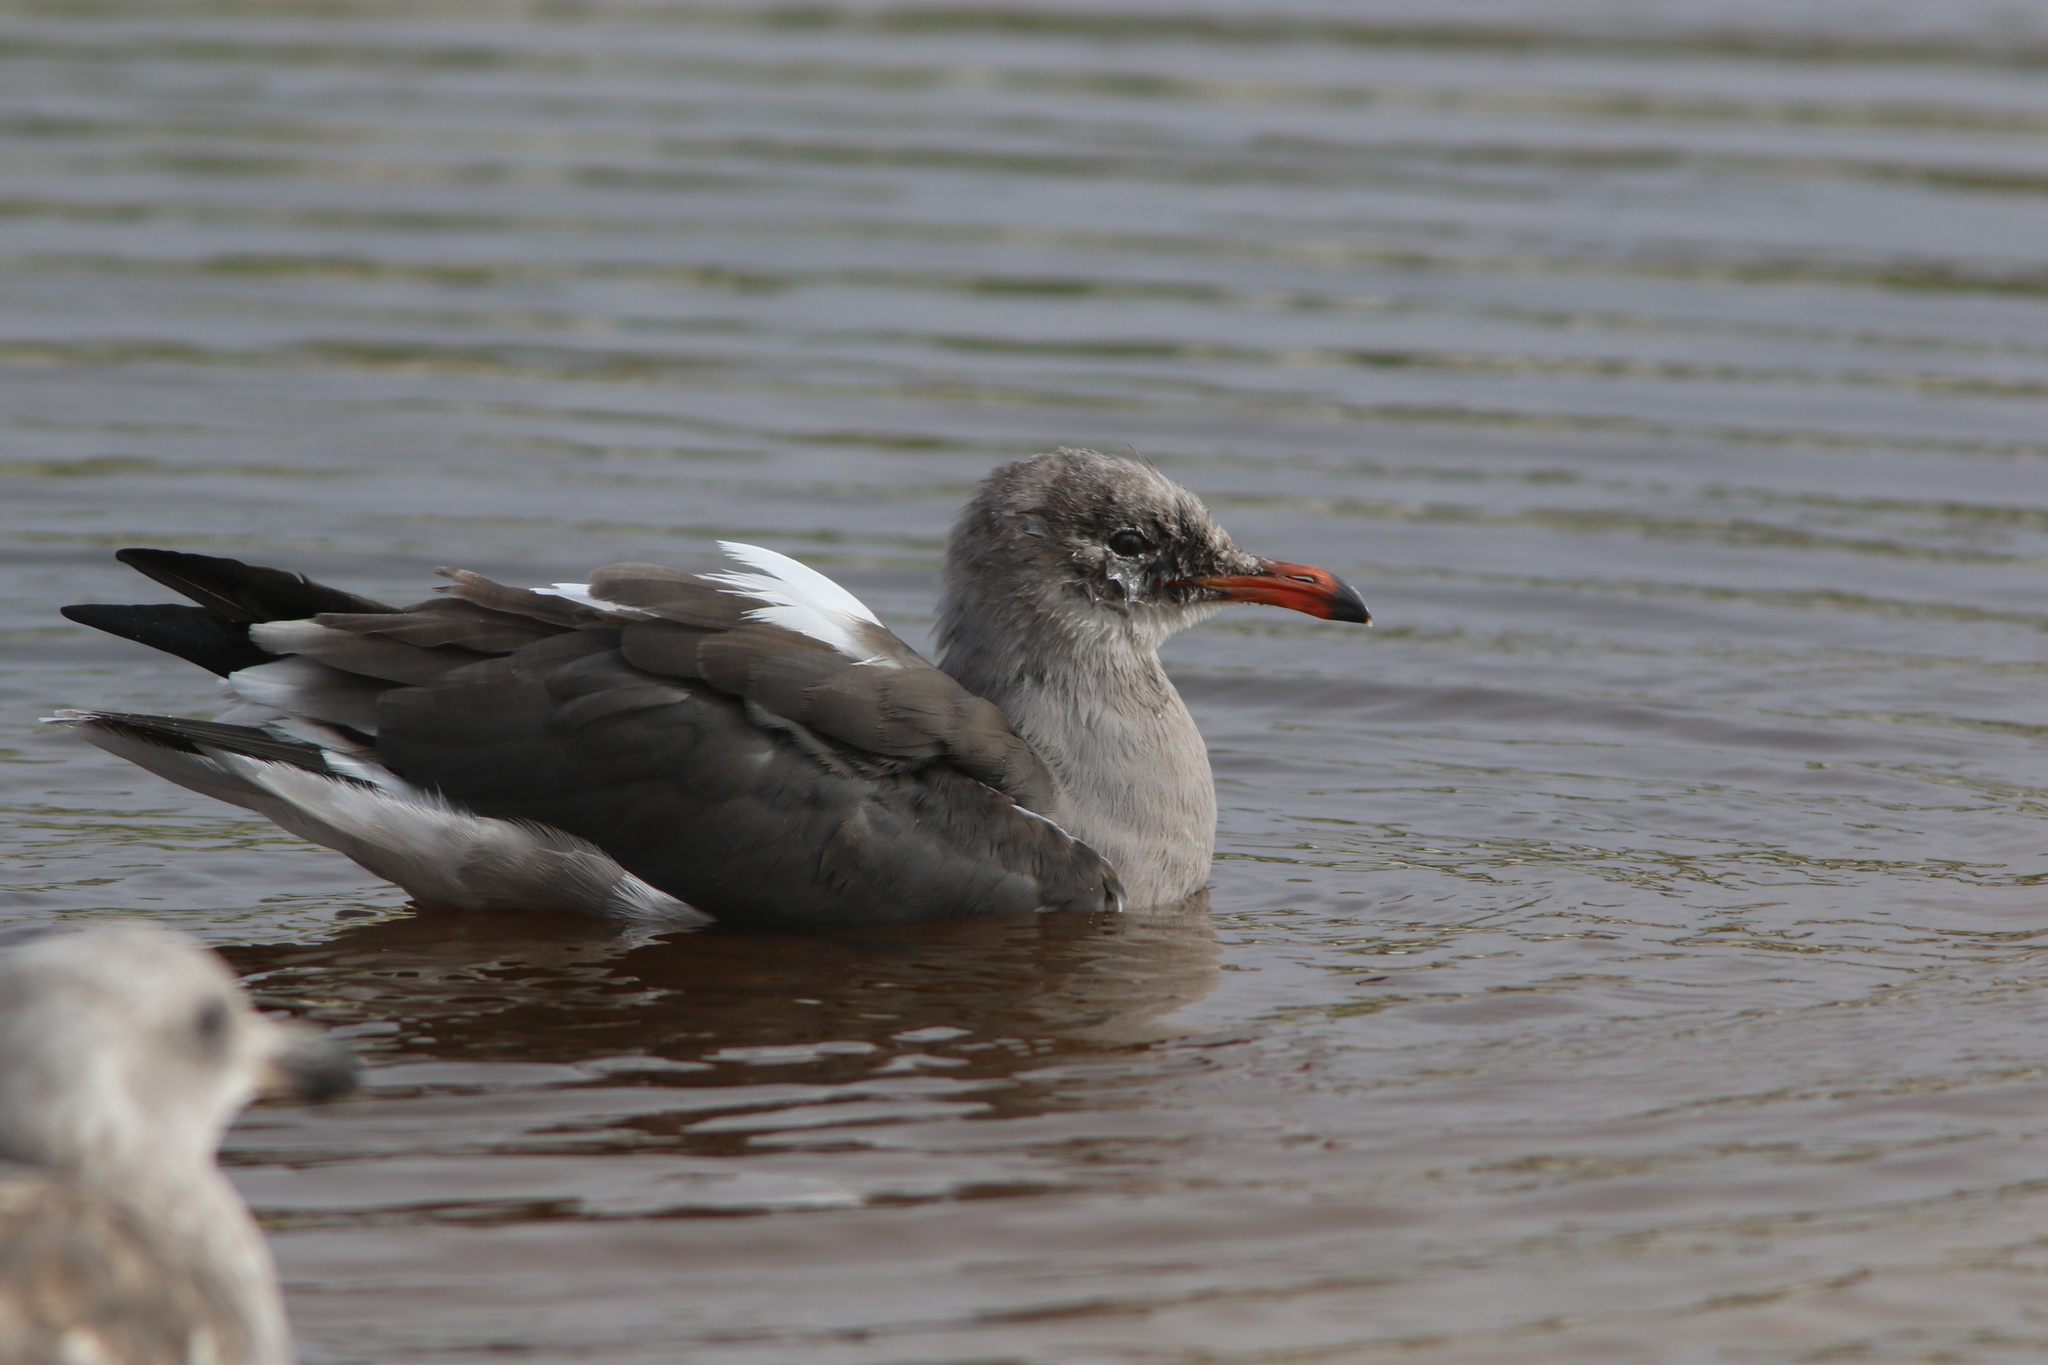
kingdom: Animalia
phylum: Chordata
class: Aves
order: Charadriiformes
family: Laridae
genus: Larus
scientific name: Larus heermanni
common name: Heermann's gull
